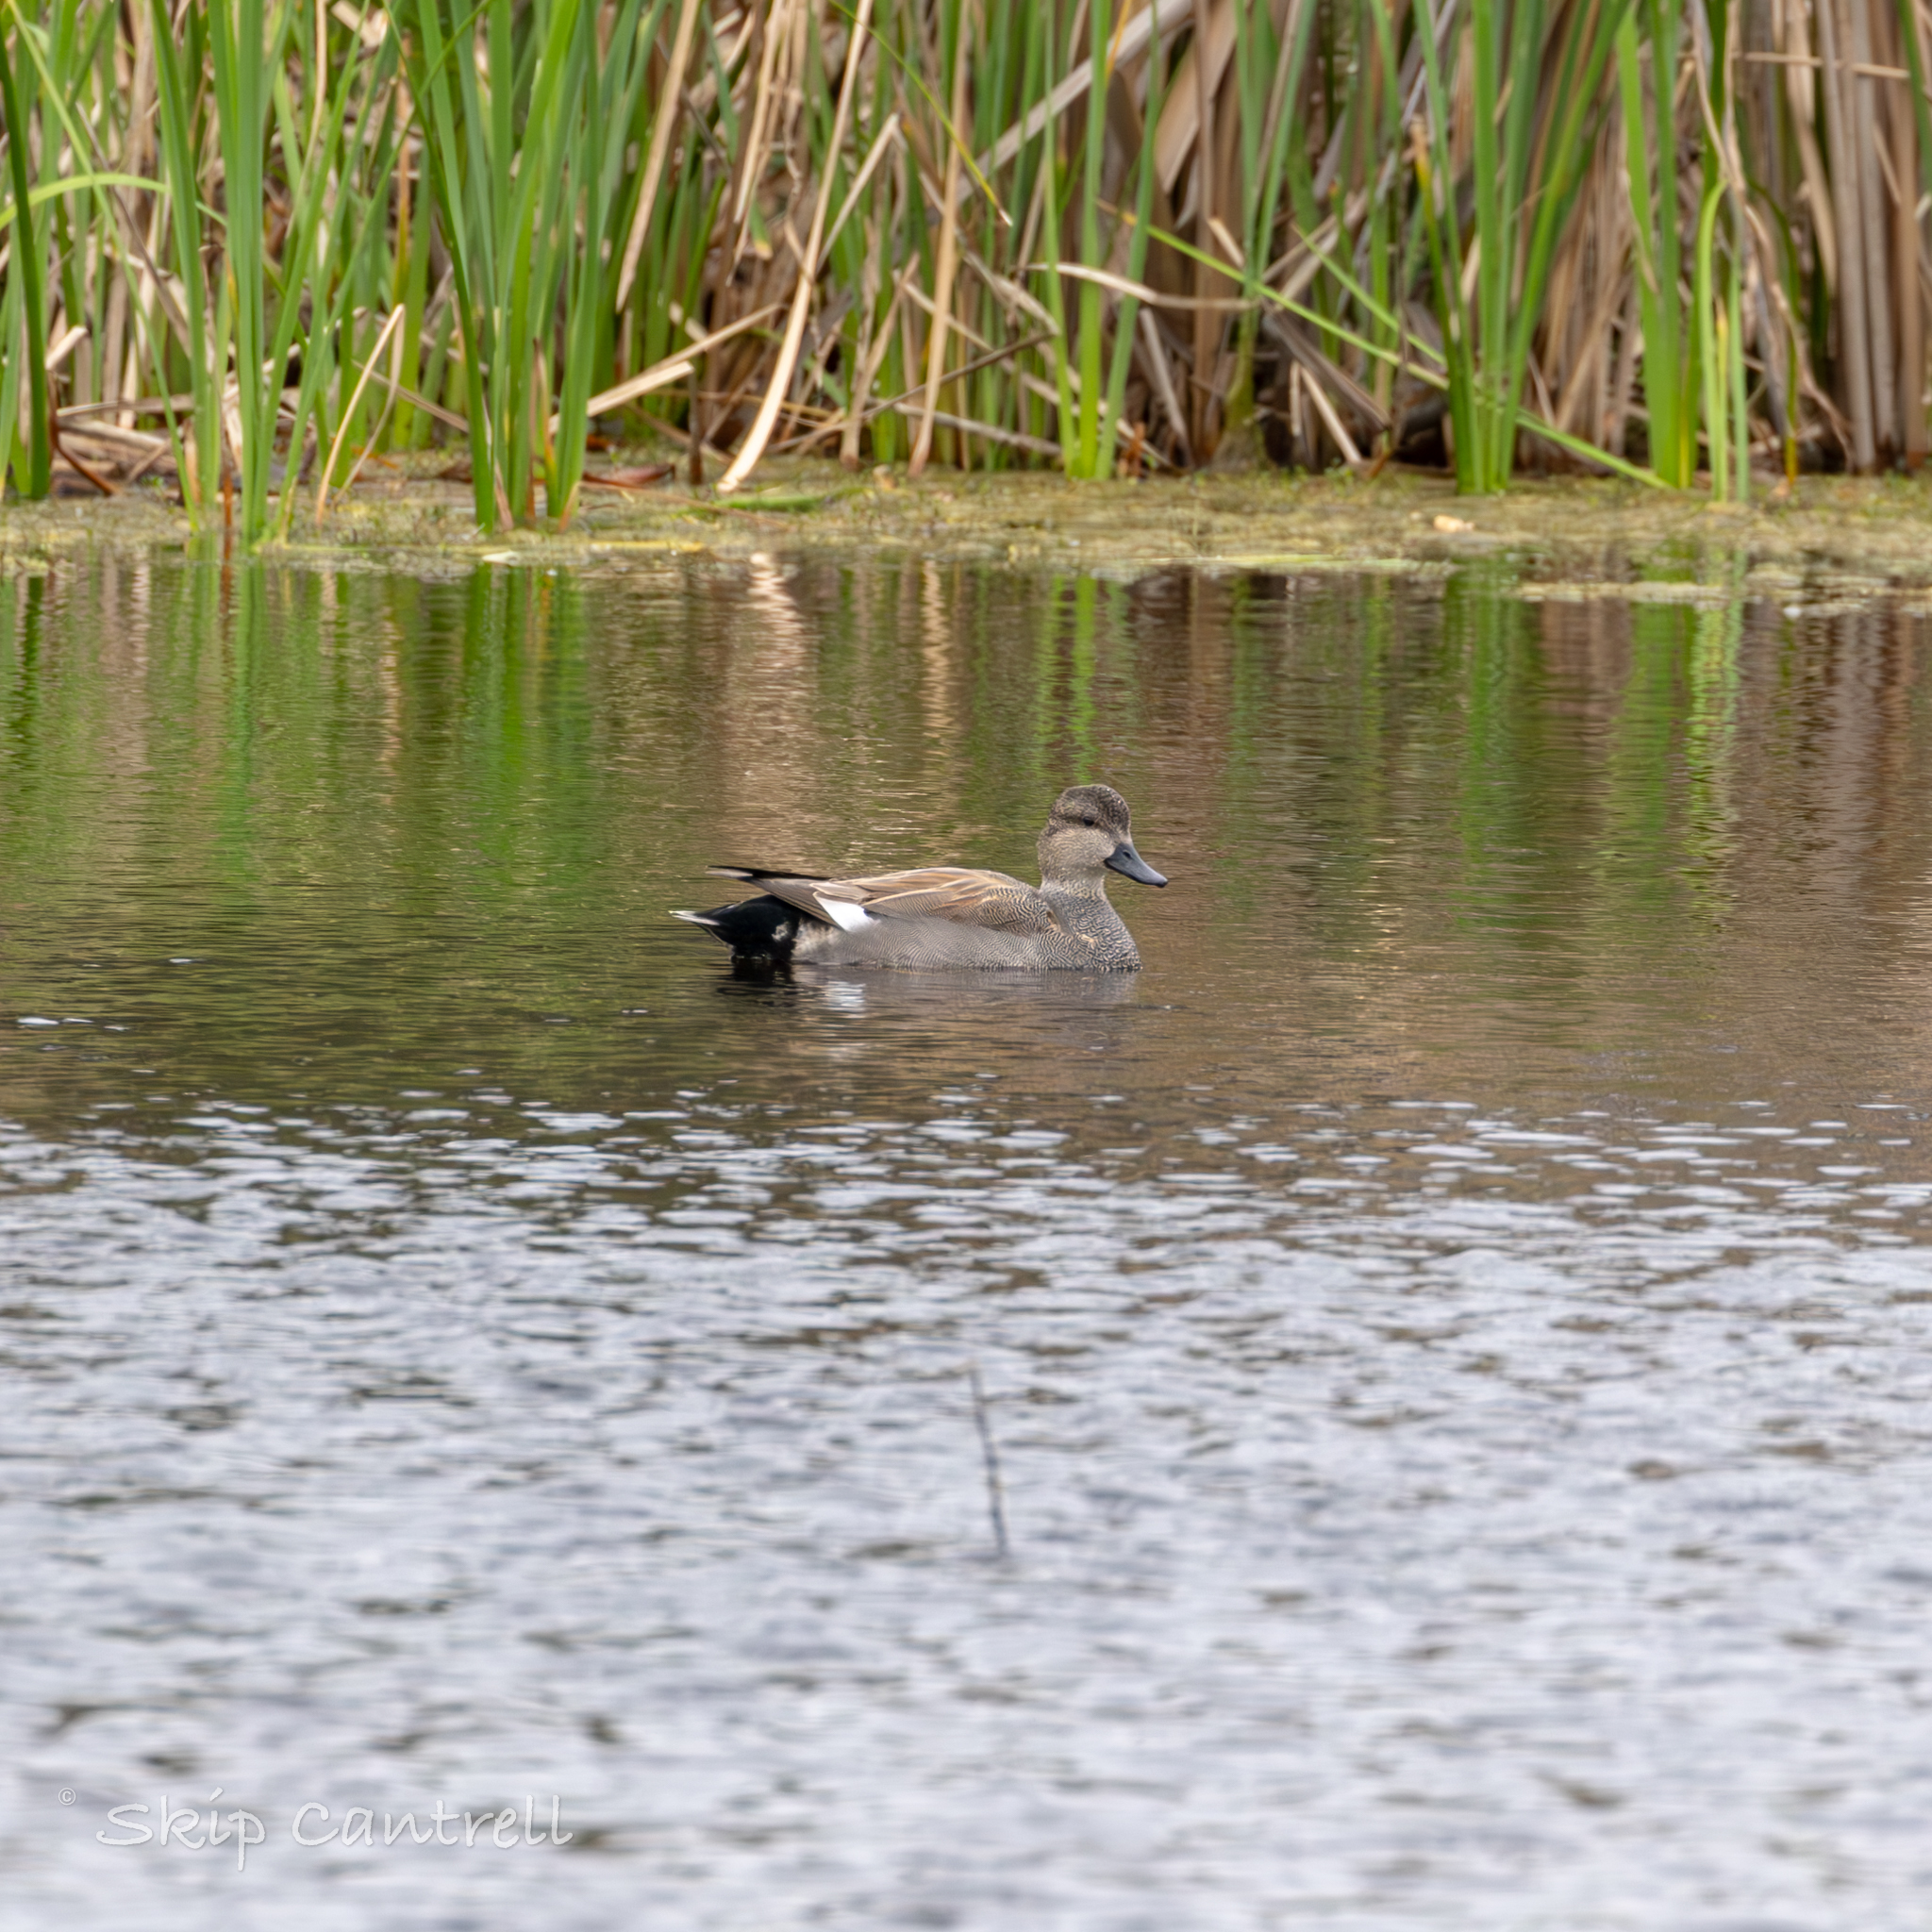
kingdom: Animalia
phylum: Chordata
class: Aves
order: Anseriformes
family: Anatidae
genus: Mareca
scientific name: Mareca strepera
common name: Gadwall
